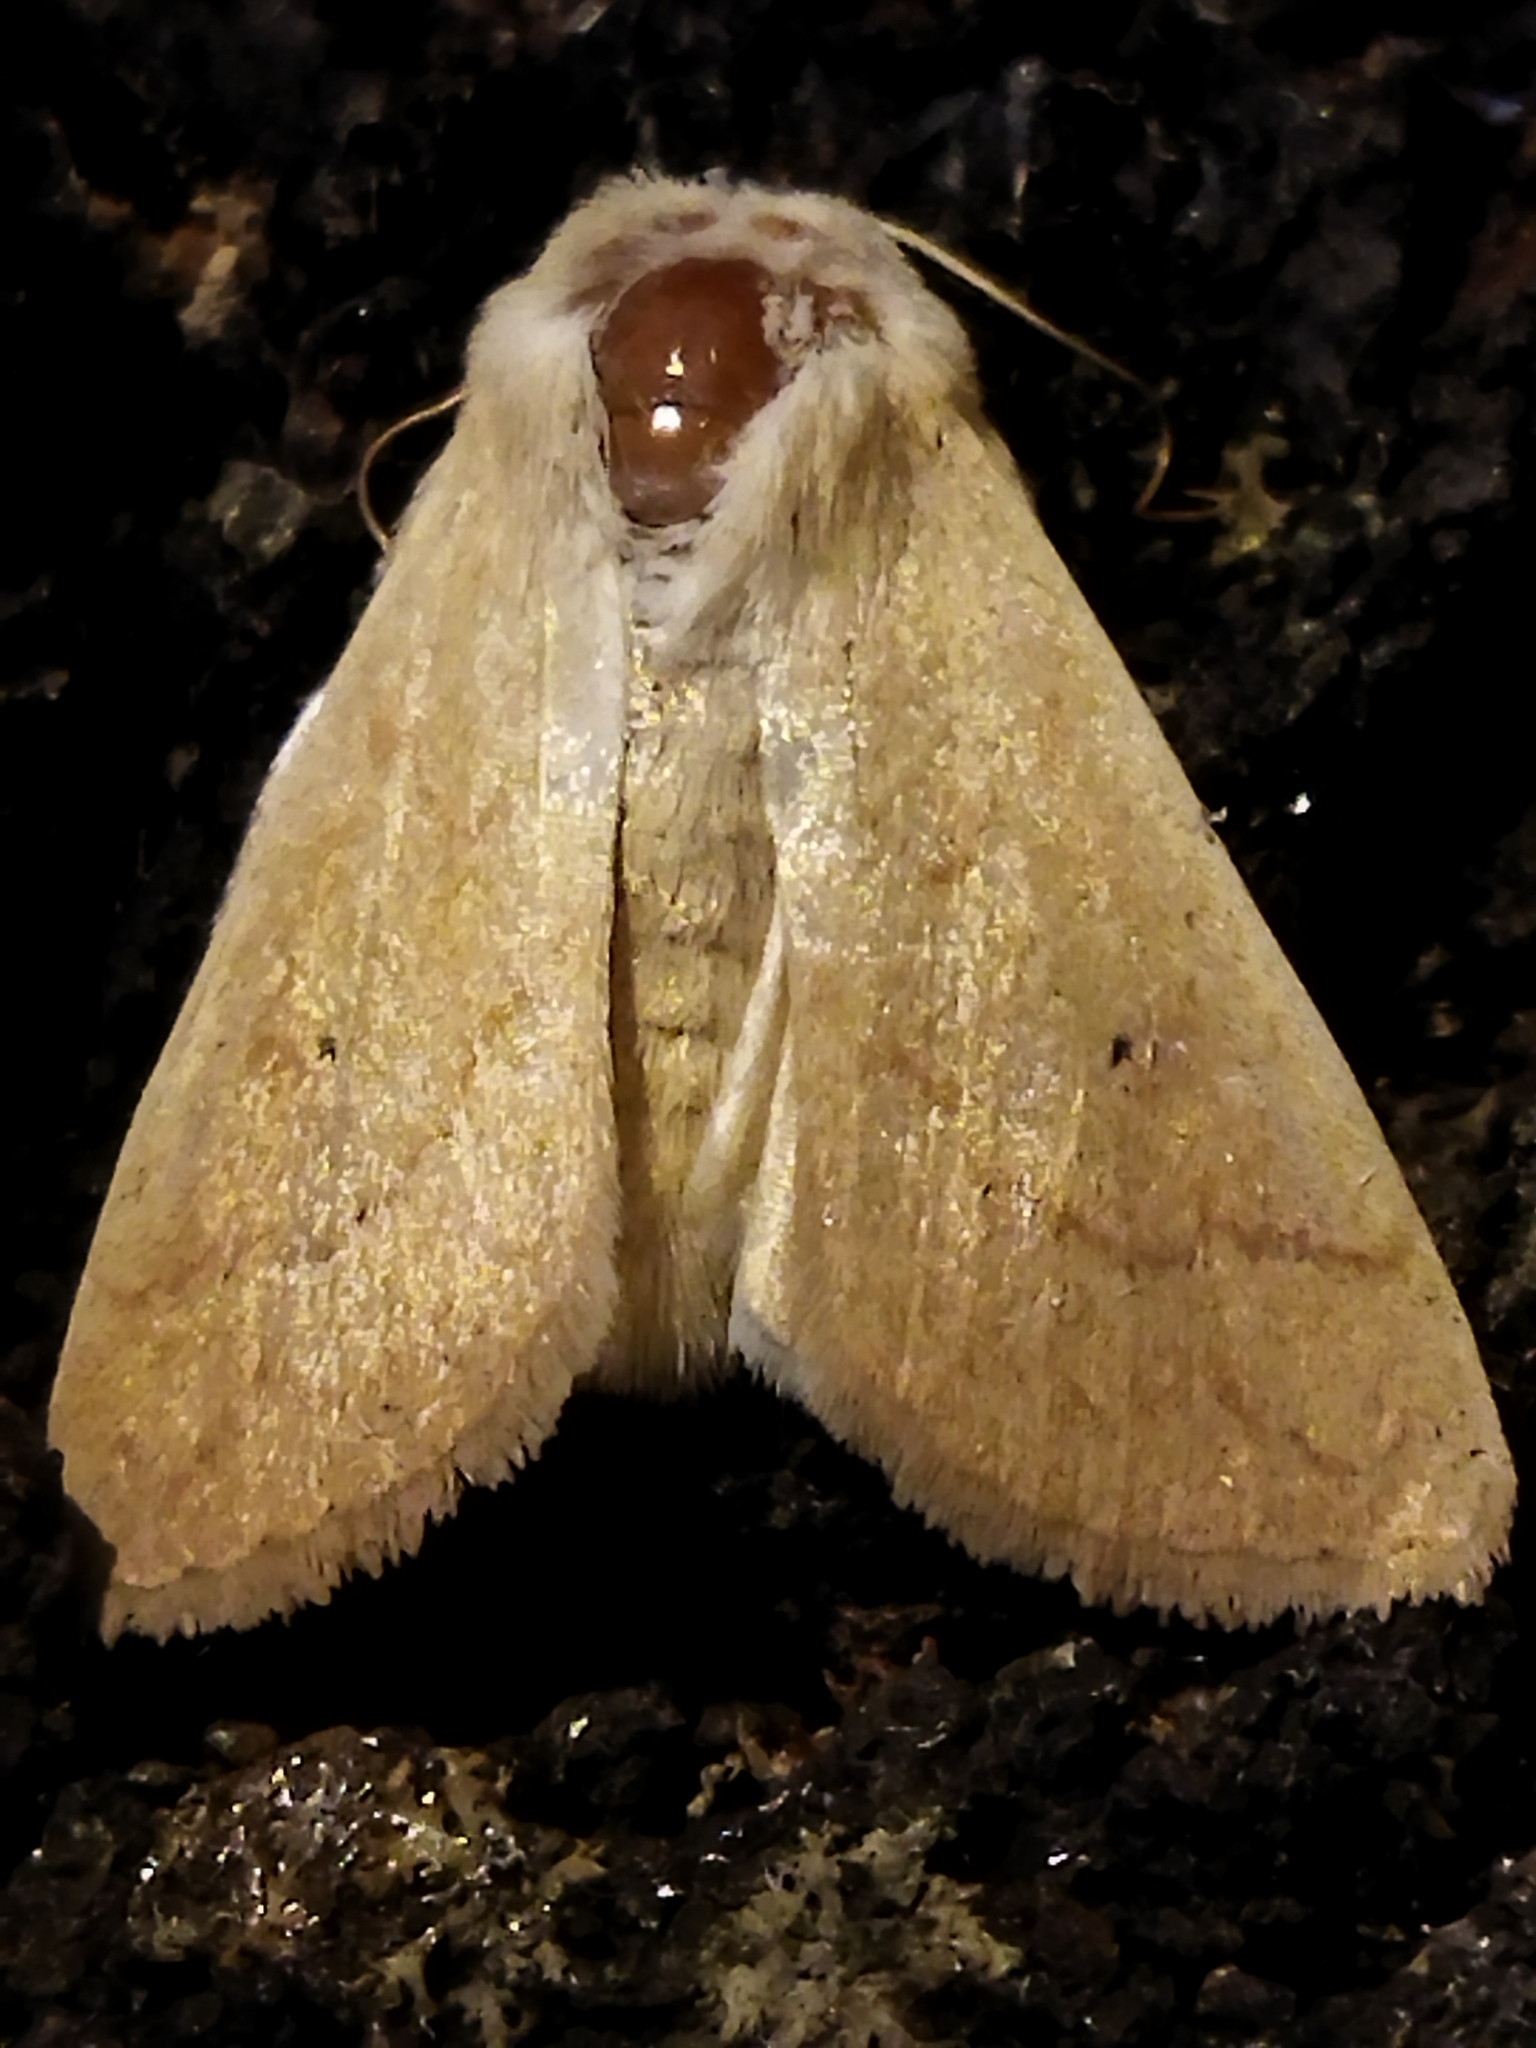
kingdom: Animalia
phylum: Arthropoda
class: Insecta
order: Lepidoptera
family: Noctuidae
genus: Mythimna
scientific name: Mythimna vitellina
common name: Delicate
